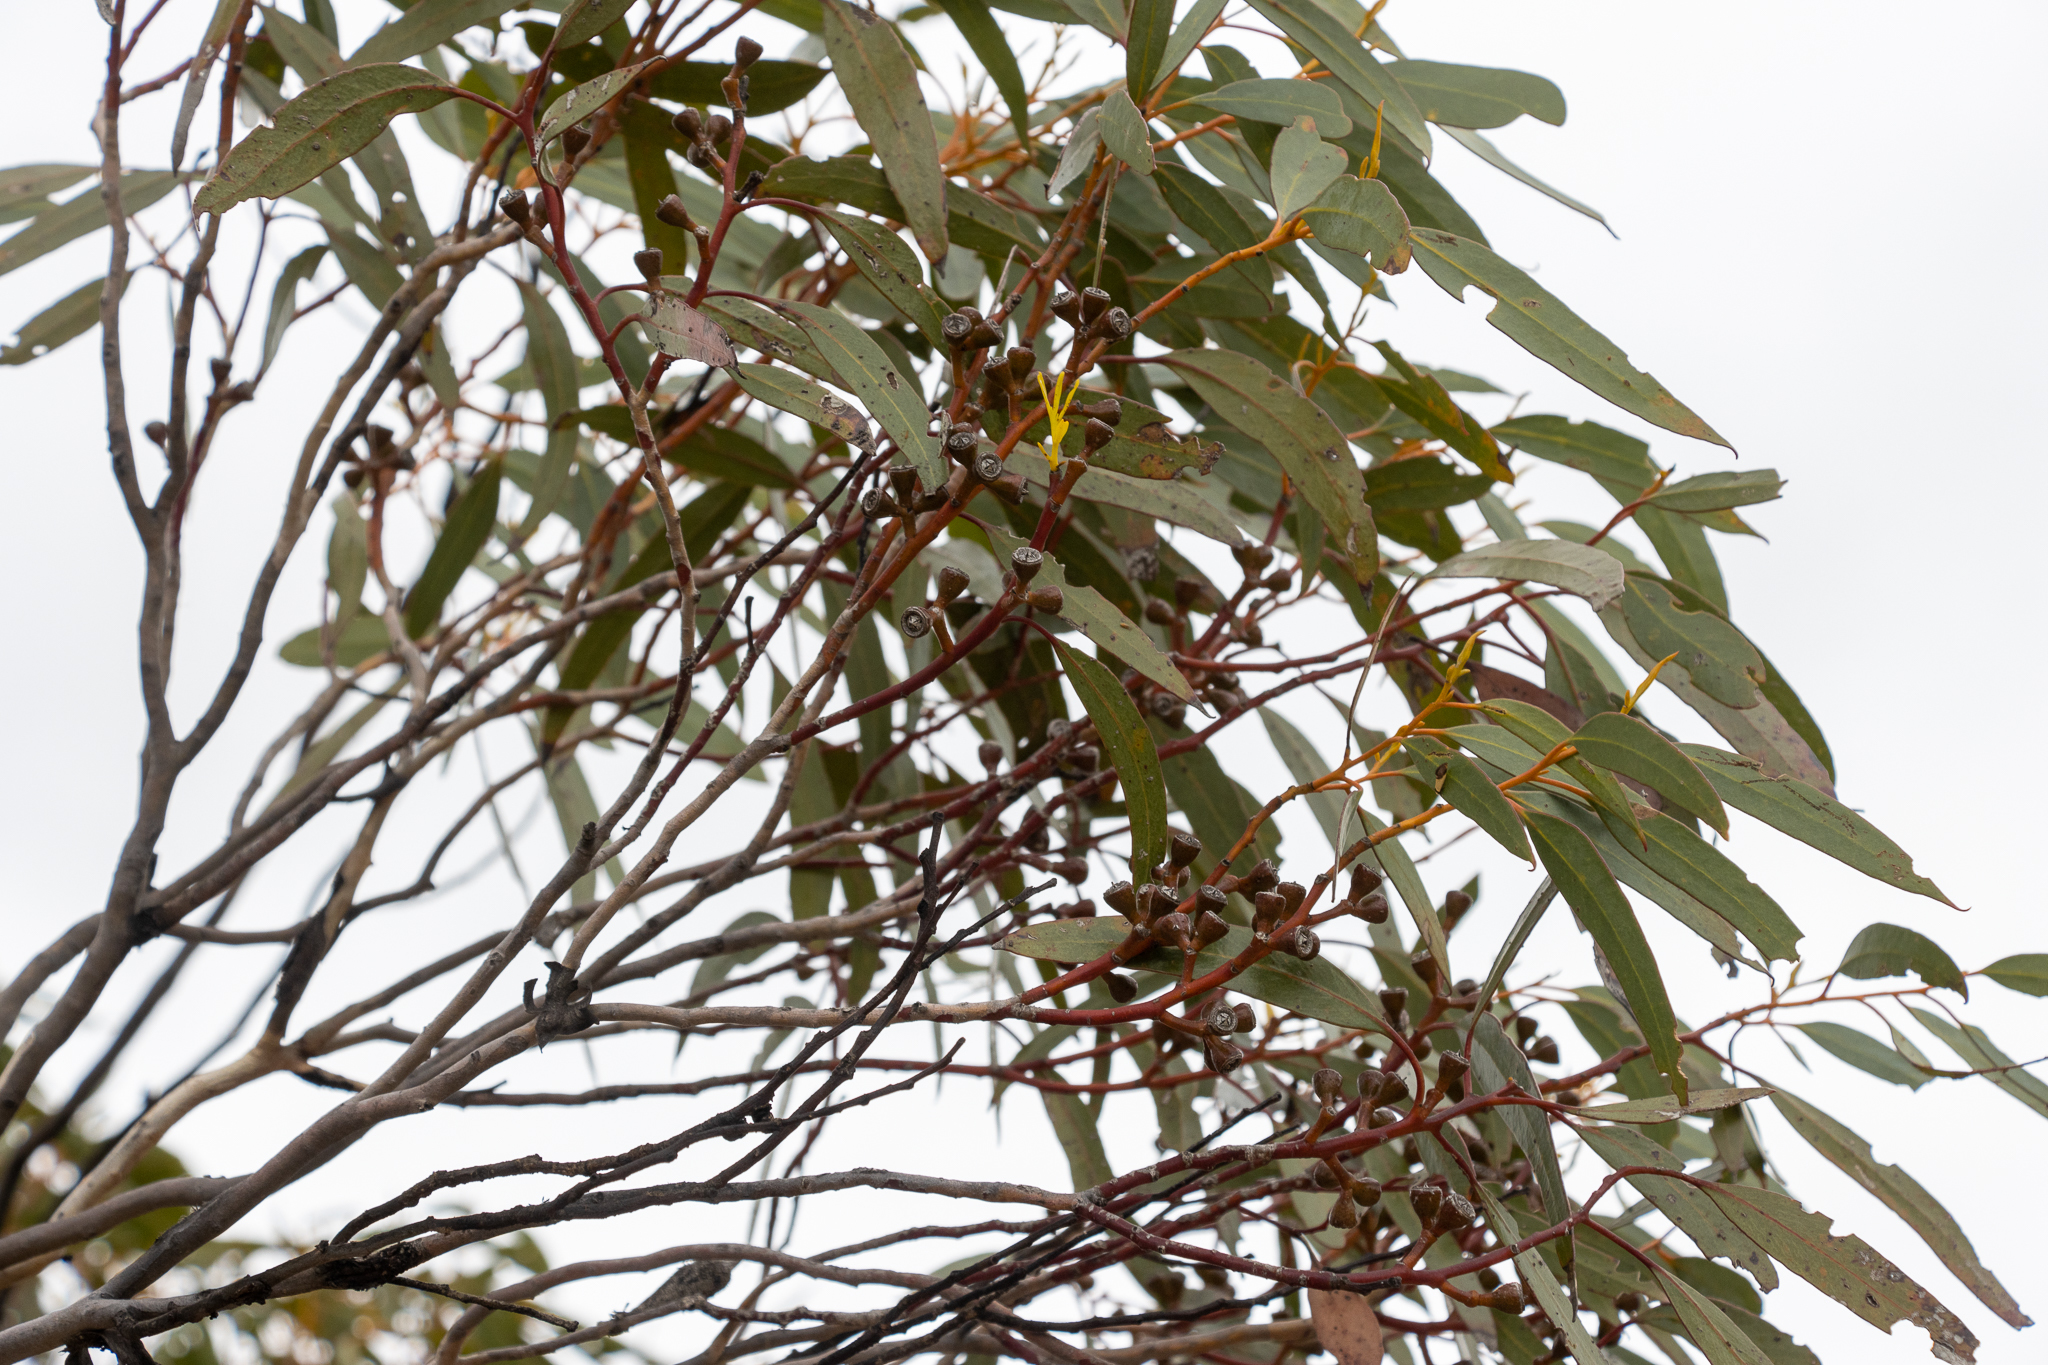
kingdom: Plantae
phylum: Tracheophyta
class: Magnoliopsida
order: Myrtales
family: Myrtaceae
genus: Eucalyptus
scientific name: Eucalyptus calcareana
